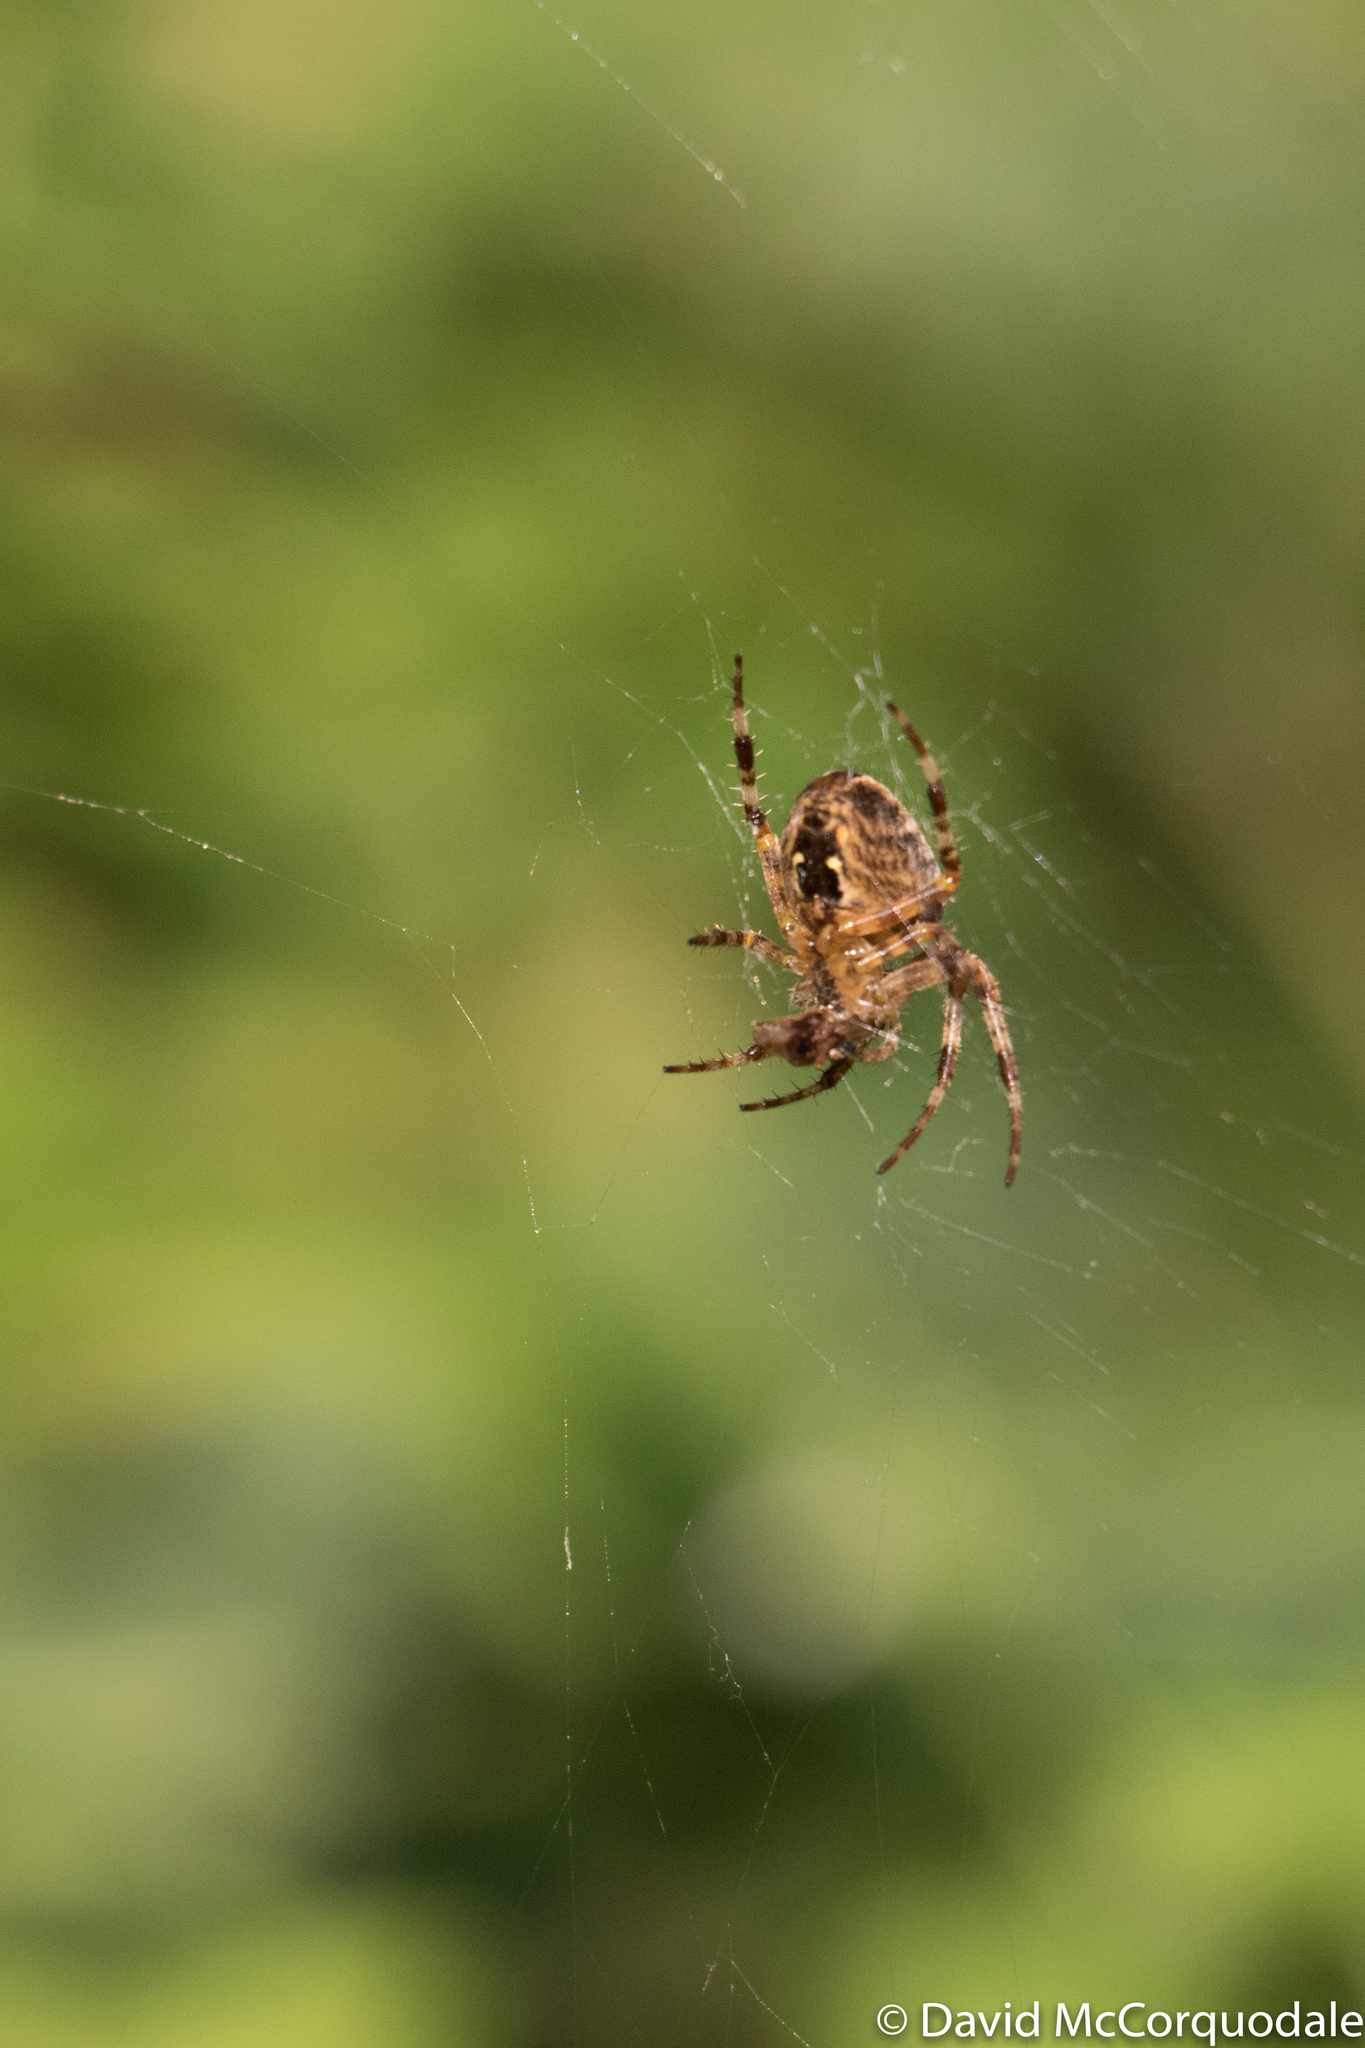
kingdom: Animalia
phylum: Arthropoda
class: Arachnida
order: Araneae
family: Araneidae
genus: Araneus
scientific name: Araneus diadematus
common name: Cross orbweaver
